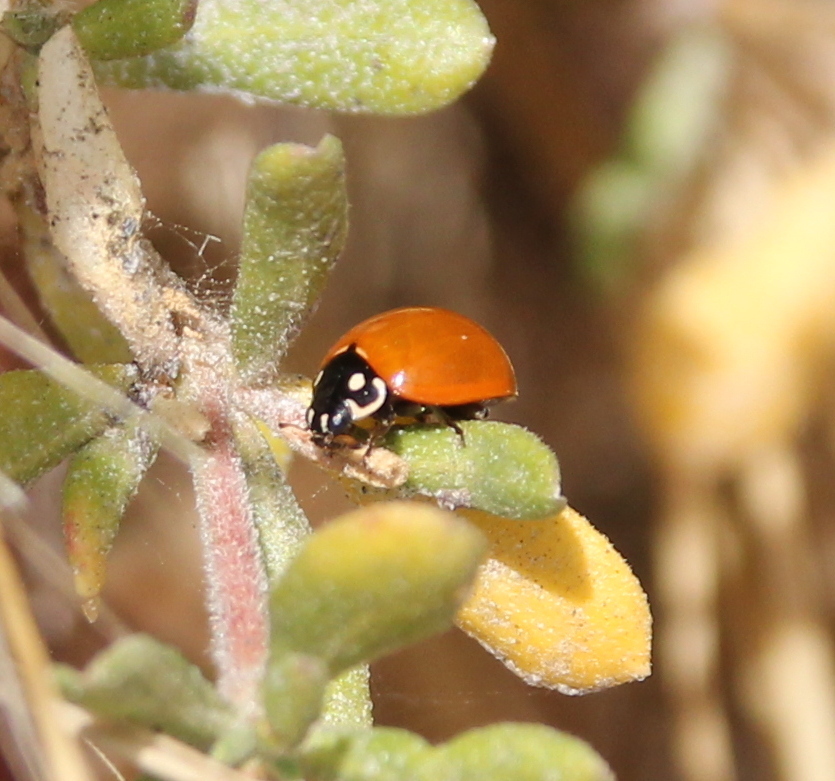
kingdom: Animalia
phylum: Arthropoda
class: Insecta
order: Coleoptera
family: Coccinellidae
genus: Cycloneda
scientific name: Cycloneda sanguinea
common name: Ladybird beetle
